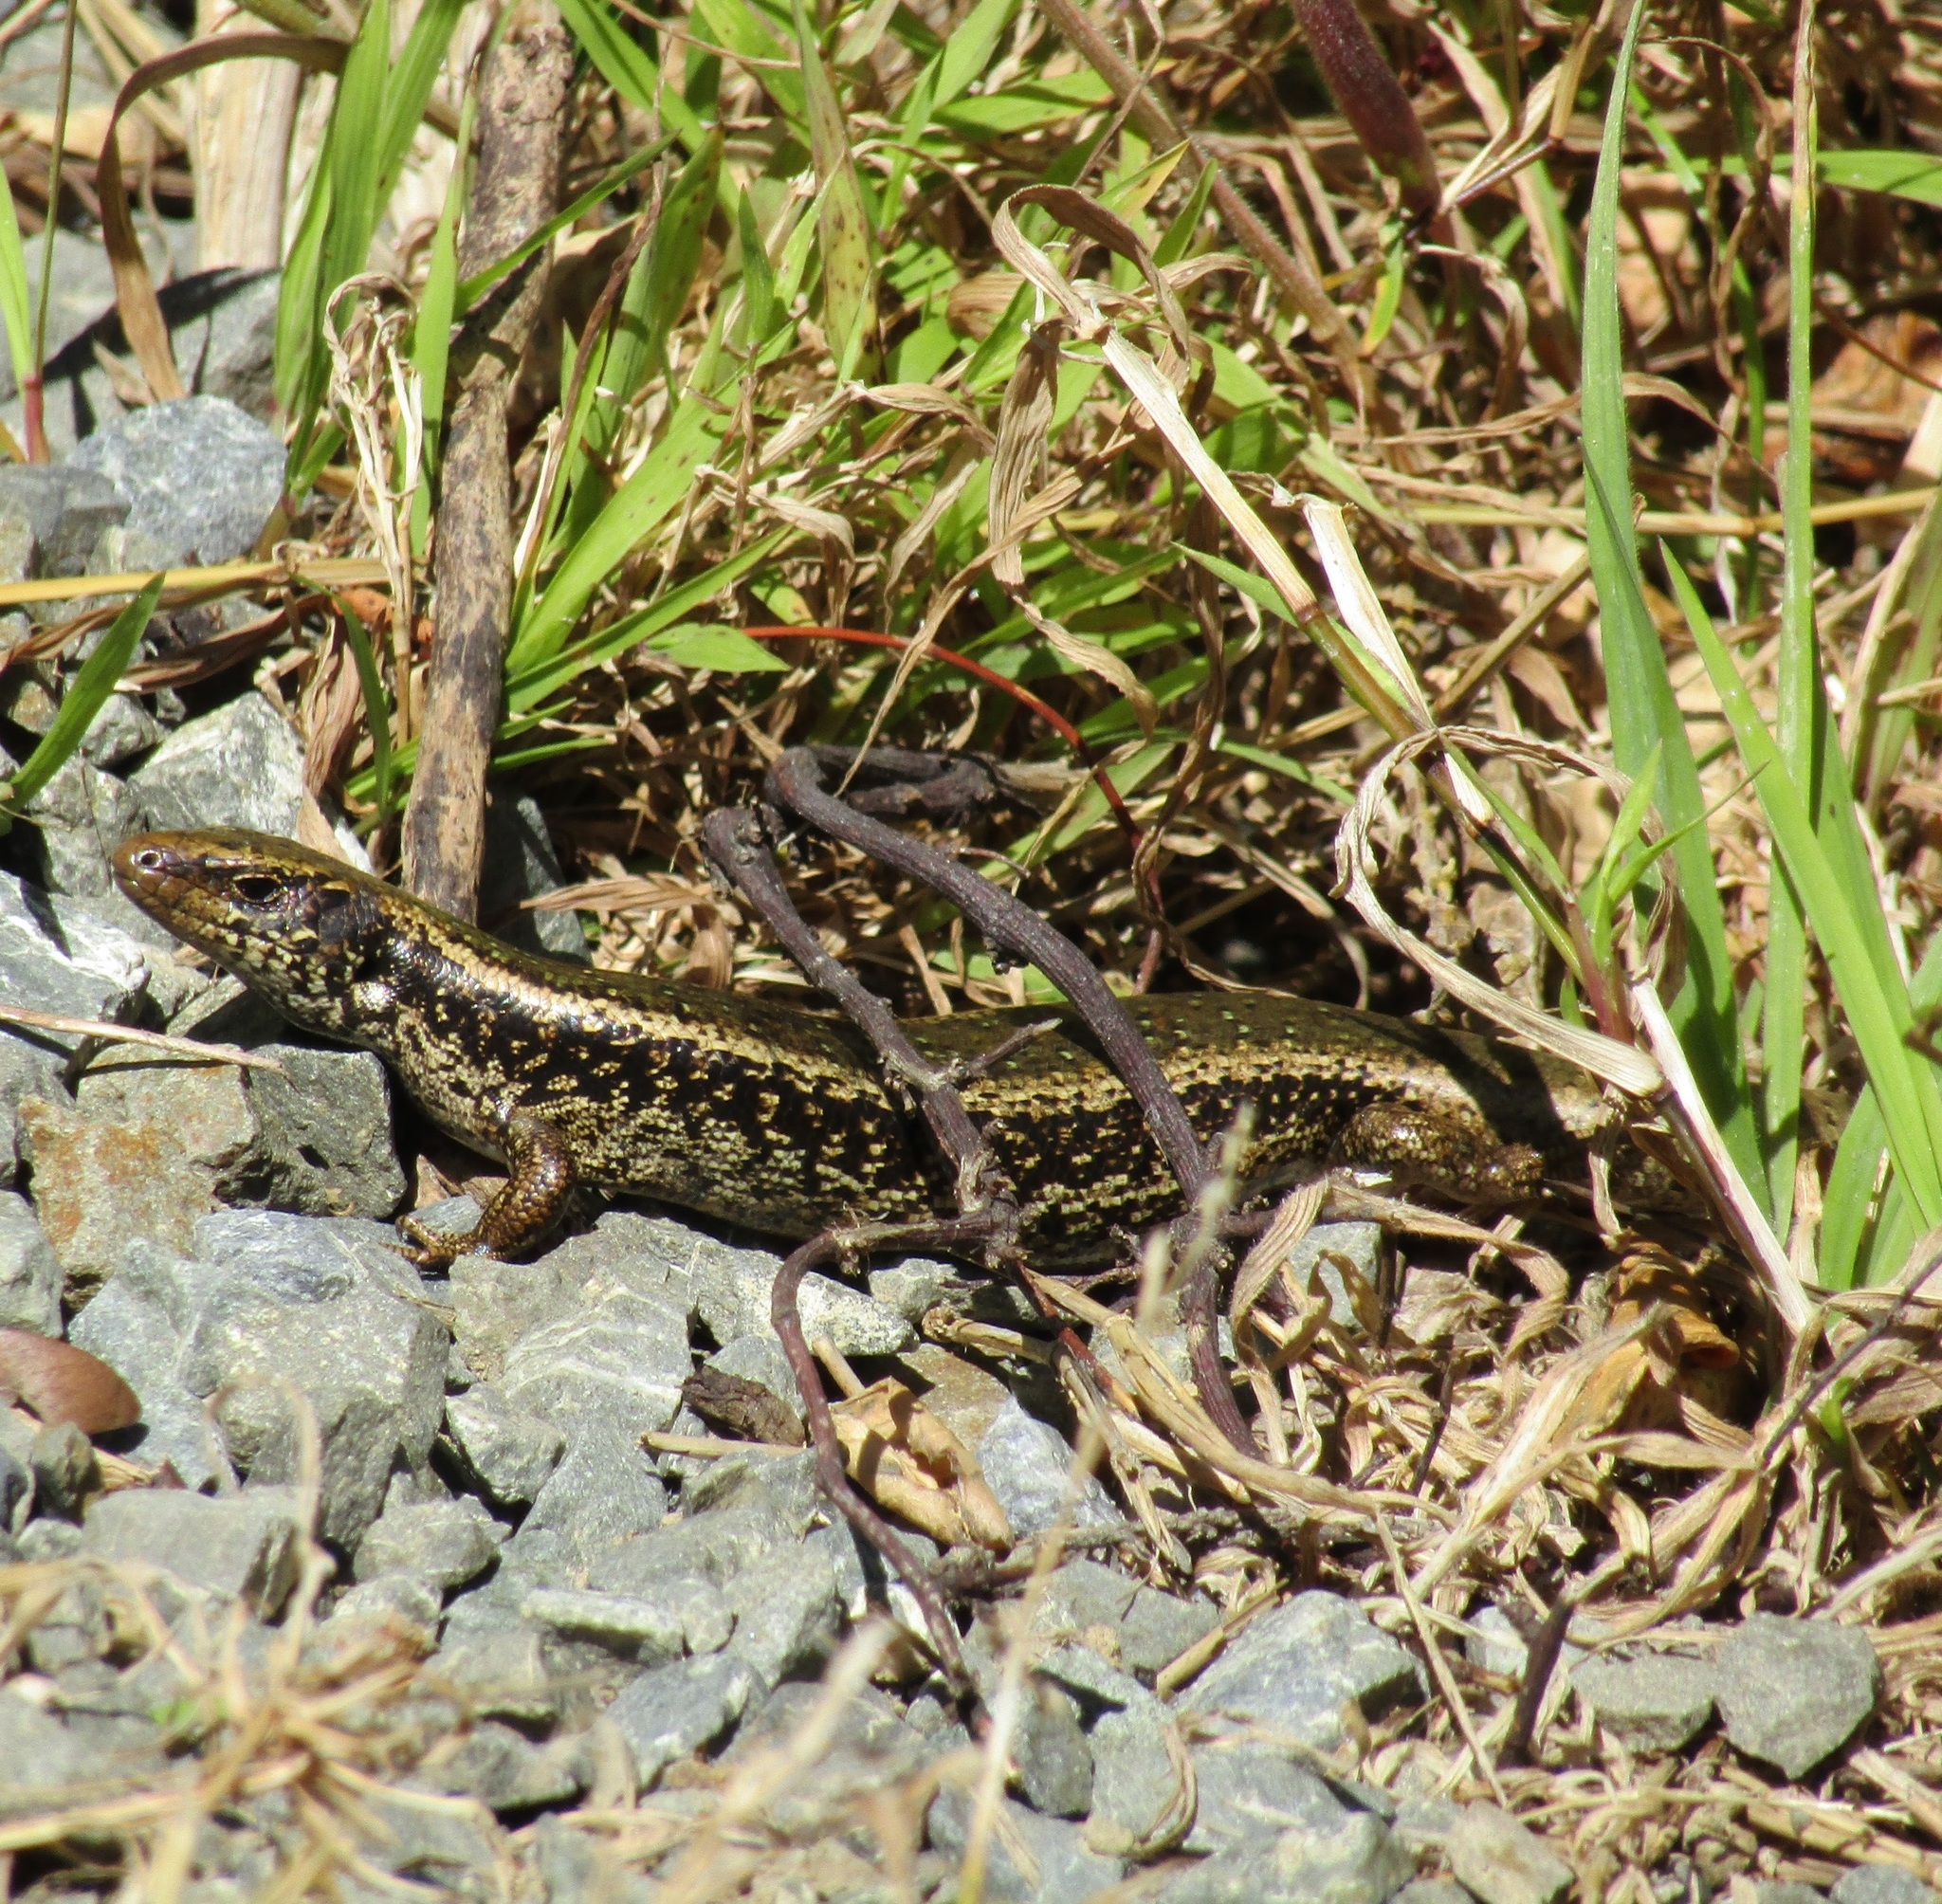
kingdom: Animalia
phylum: Chordata
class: Squamata
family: Scincidae
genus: Oligosoma
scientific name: Oligosoma kokowai
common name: Northern spotted skink
